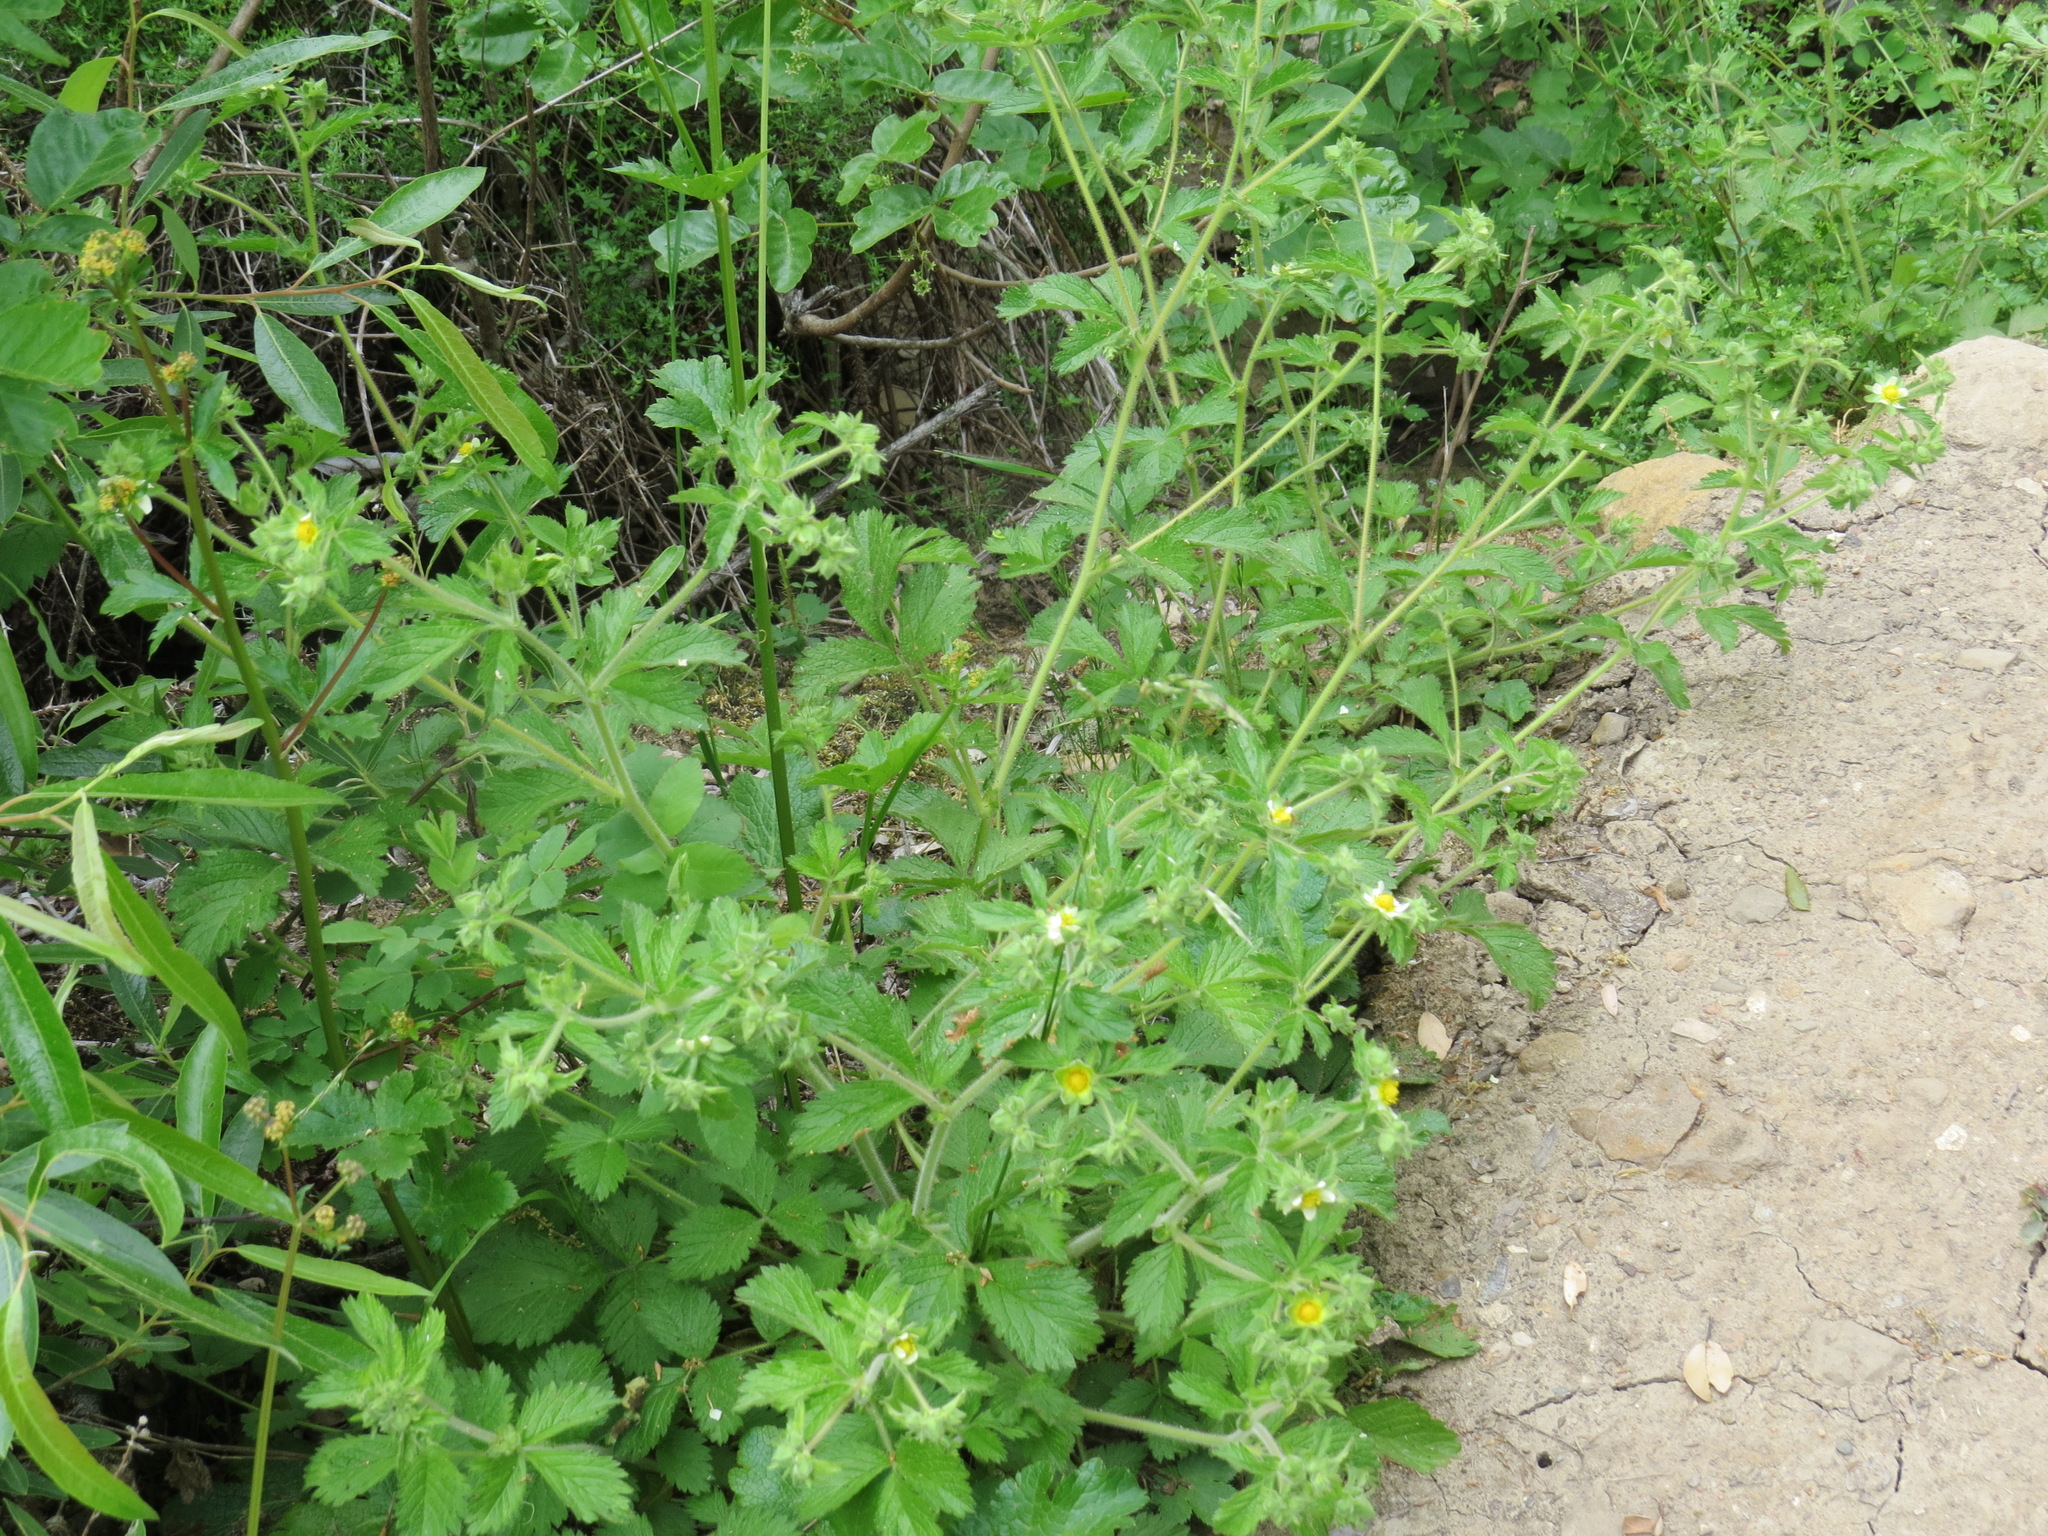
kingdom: Plantae
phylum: Tracheophyta
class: Magnoliopsida
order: Rosales
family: Rosaceae
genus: Drymocallis
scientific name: Drymocallis glandulosa
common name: Sticky cinquefoil
